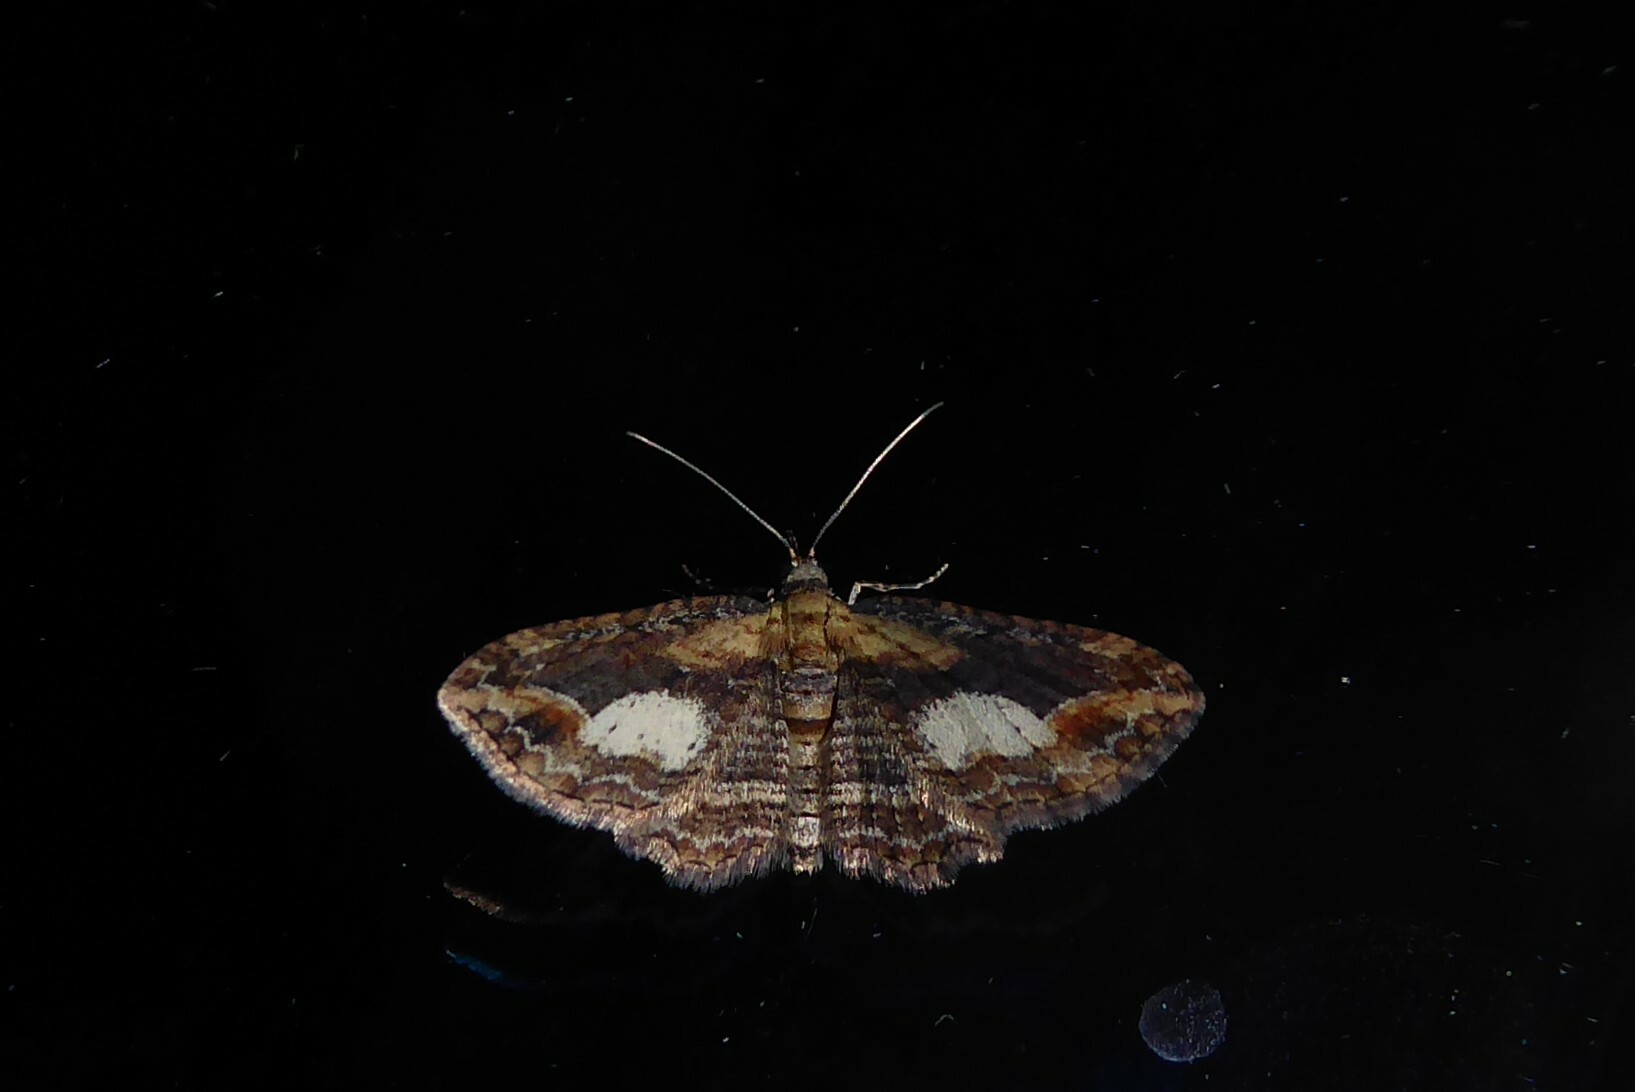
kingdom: Animalia
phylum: Arthropoda
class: Insecta
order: Lepidoptera
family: Geometridae
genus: Chloroclystis
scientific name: Chloroclystis filata
